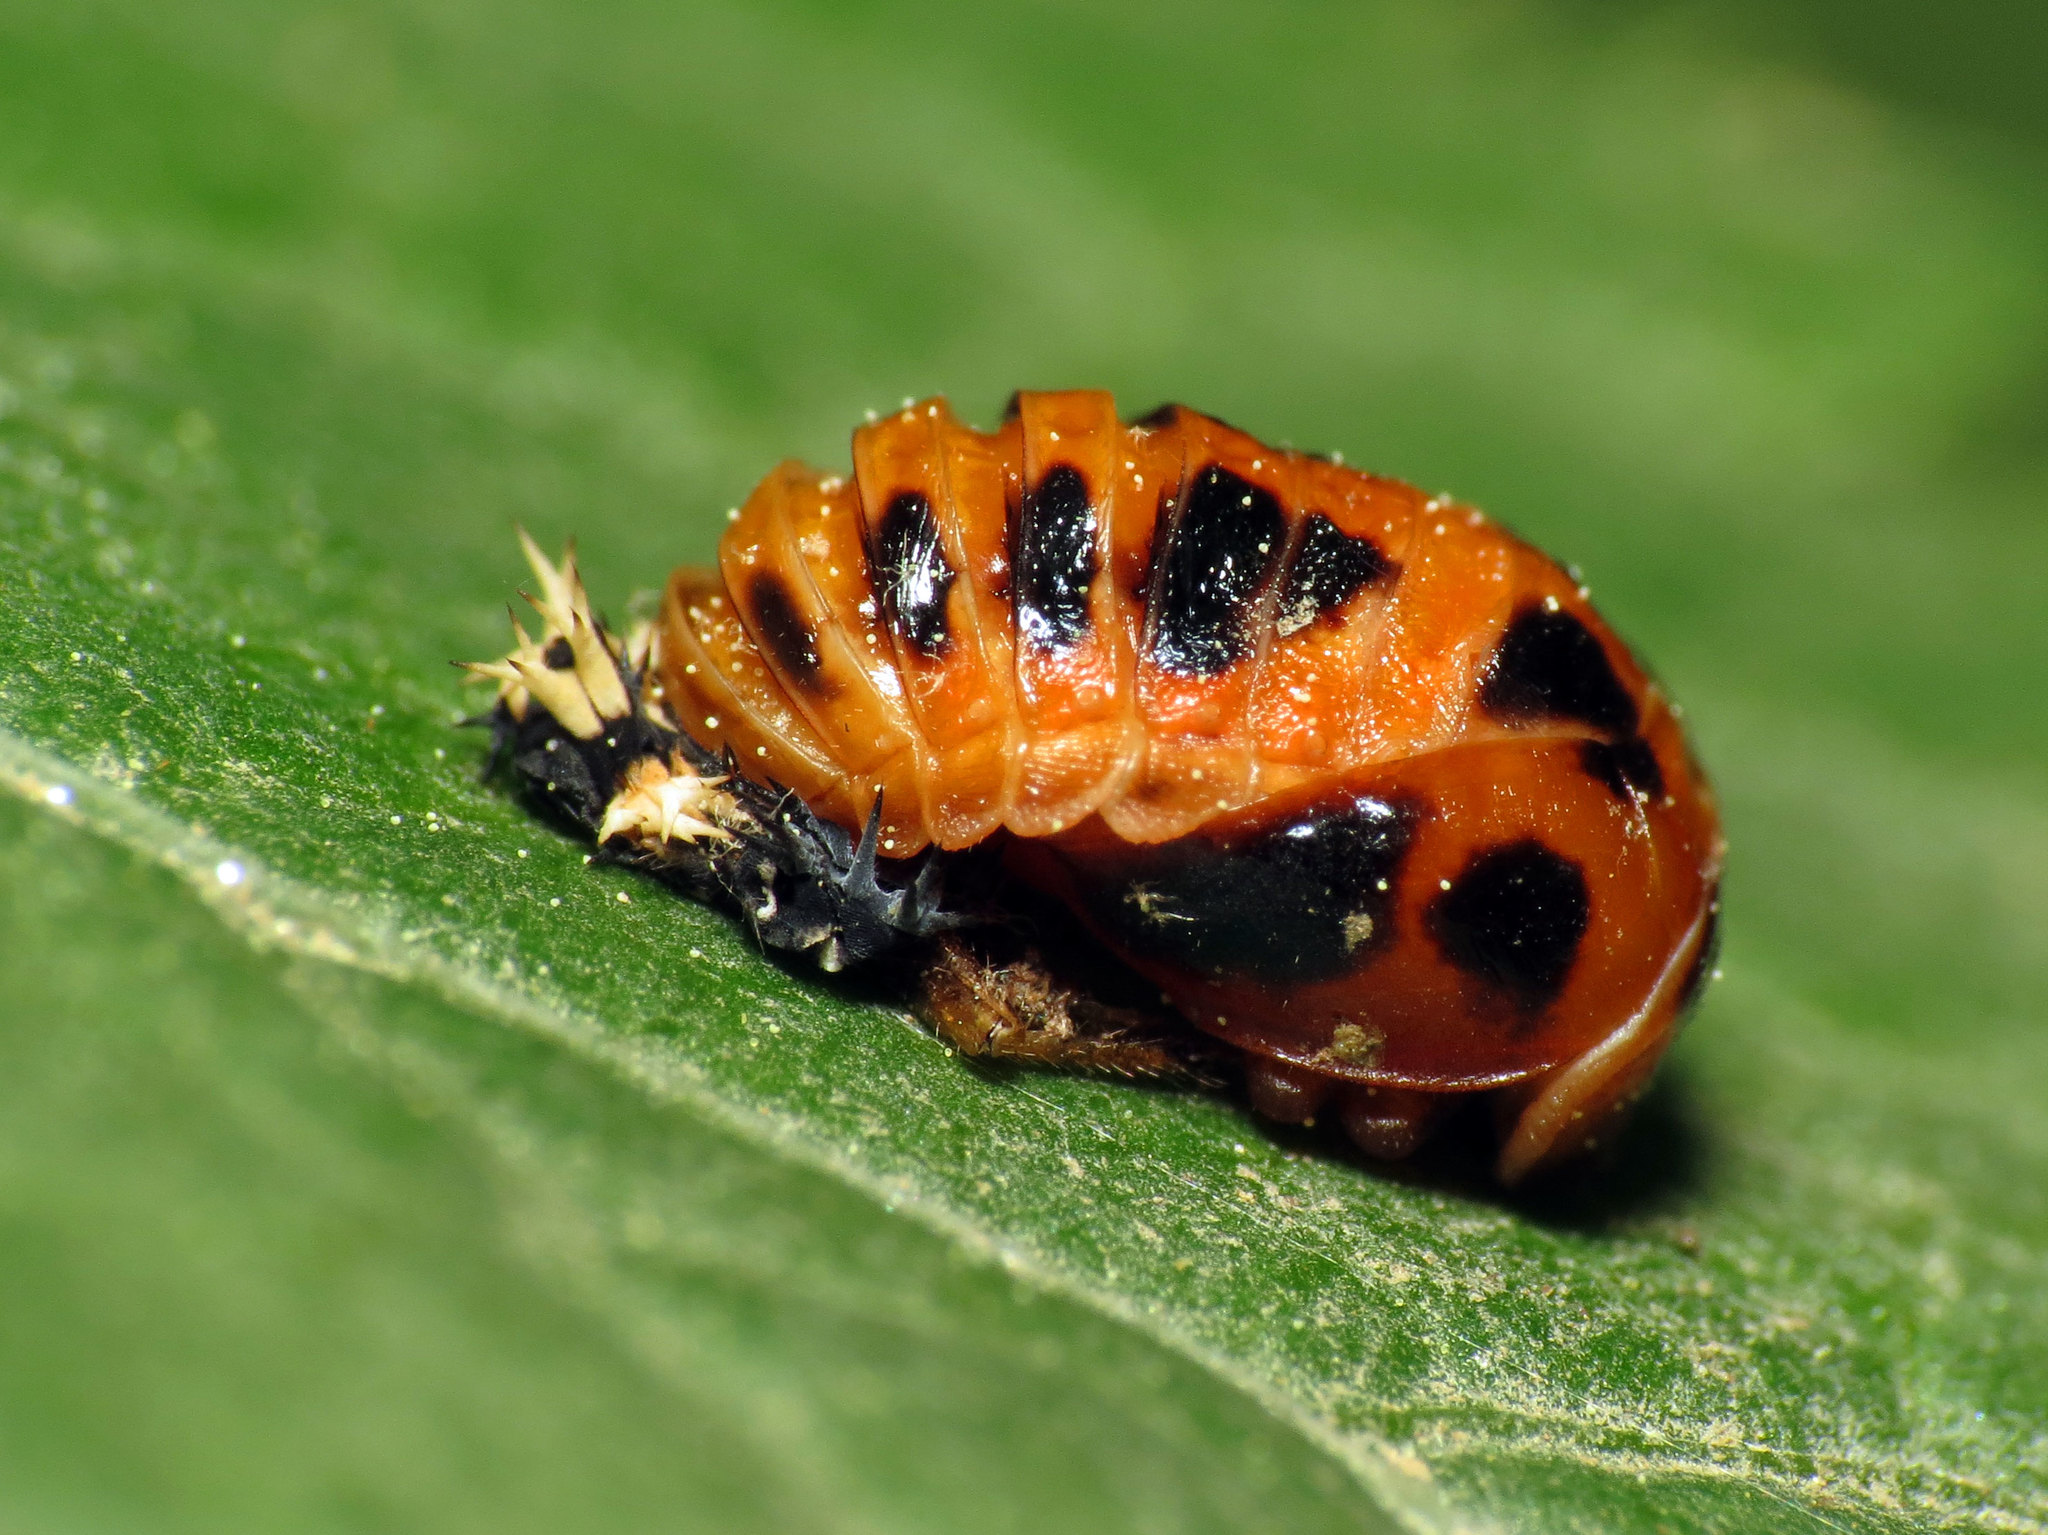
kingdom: Animalia
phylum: Arthropoda
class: Insecta
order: Coleoptera
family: Coccinellidae
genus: Harmonia
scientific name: Harmonia axyridis
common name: Harlequin ladybird
